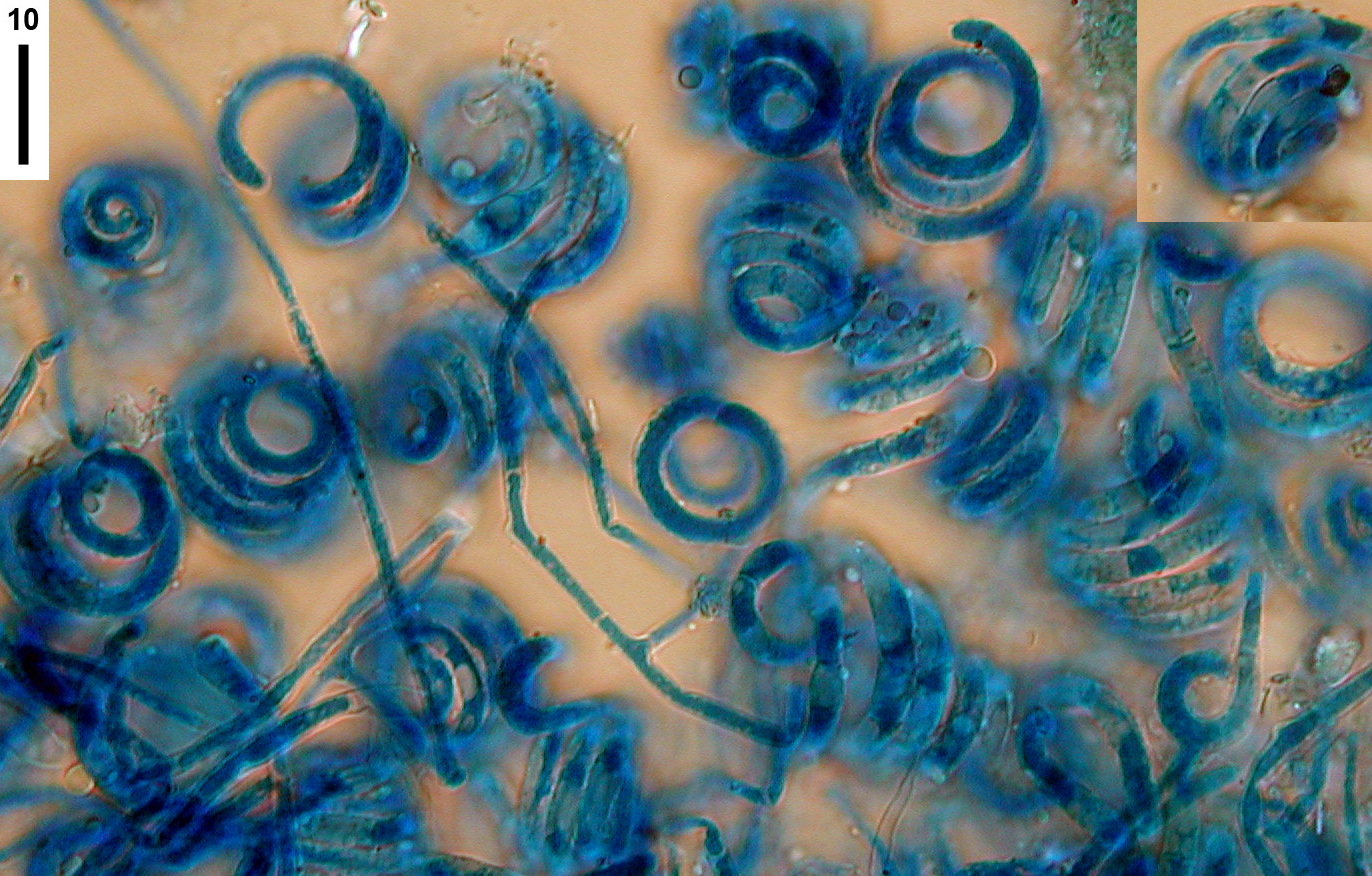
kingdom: Fungi
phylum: Ascomycota
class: Leotiomycetes
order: Helotiales
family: Helotiaceae
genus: Helicodendron
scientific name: Helicodendron luteoalbum
